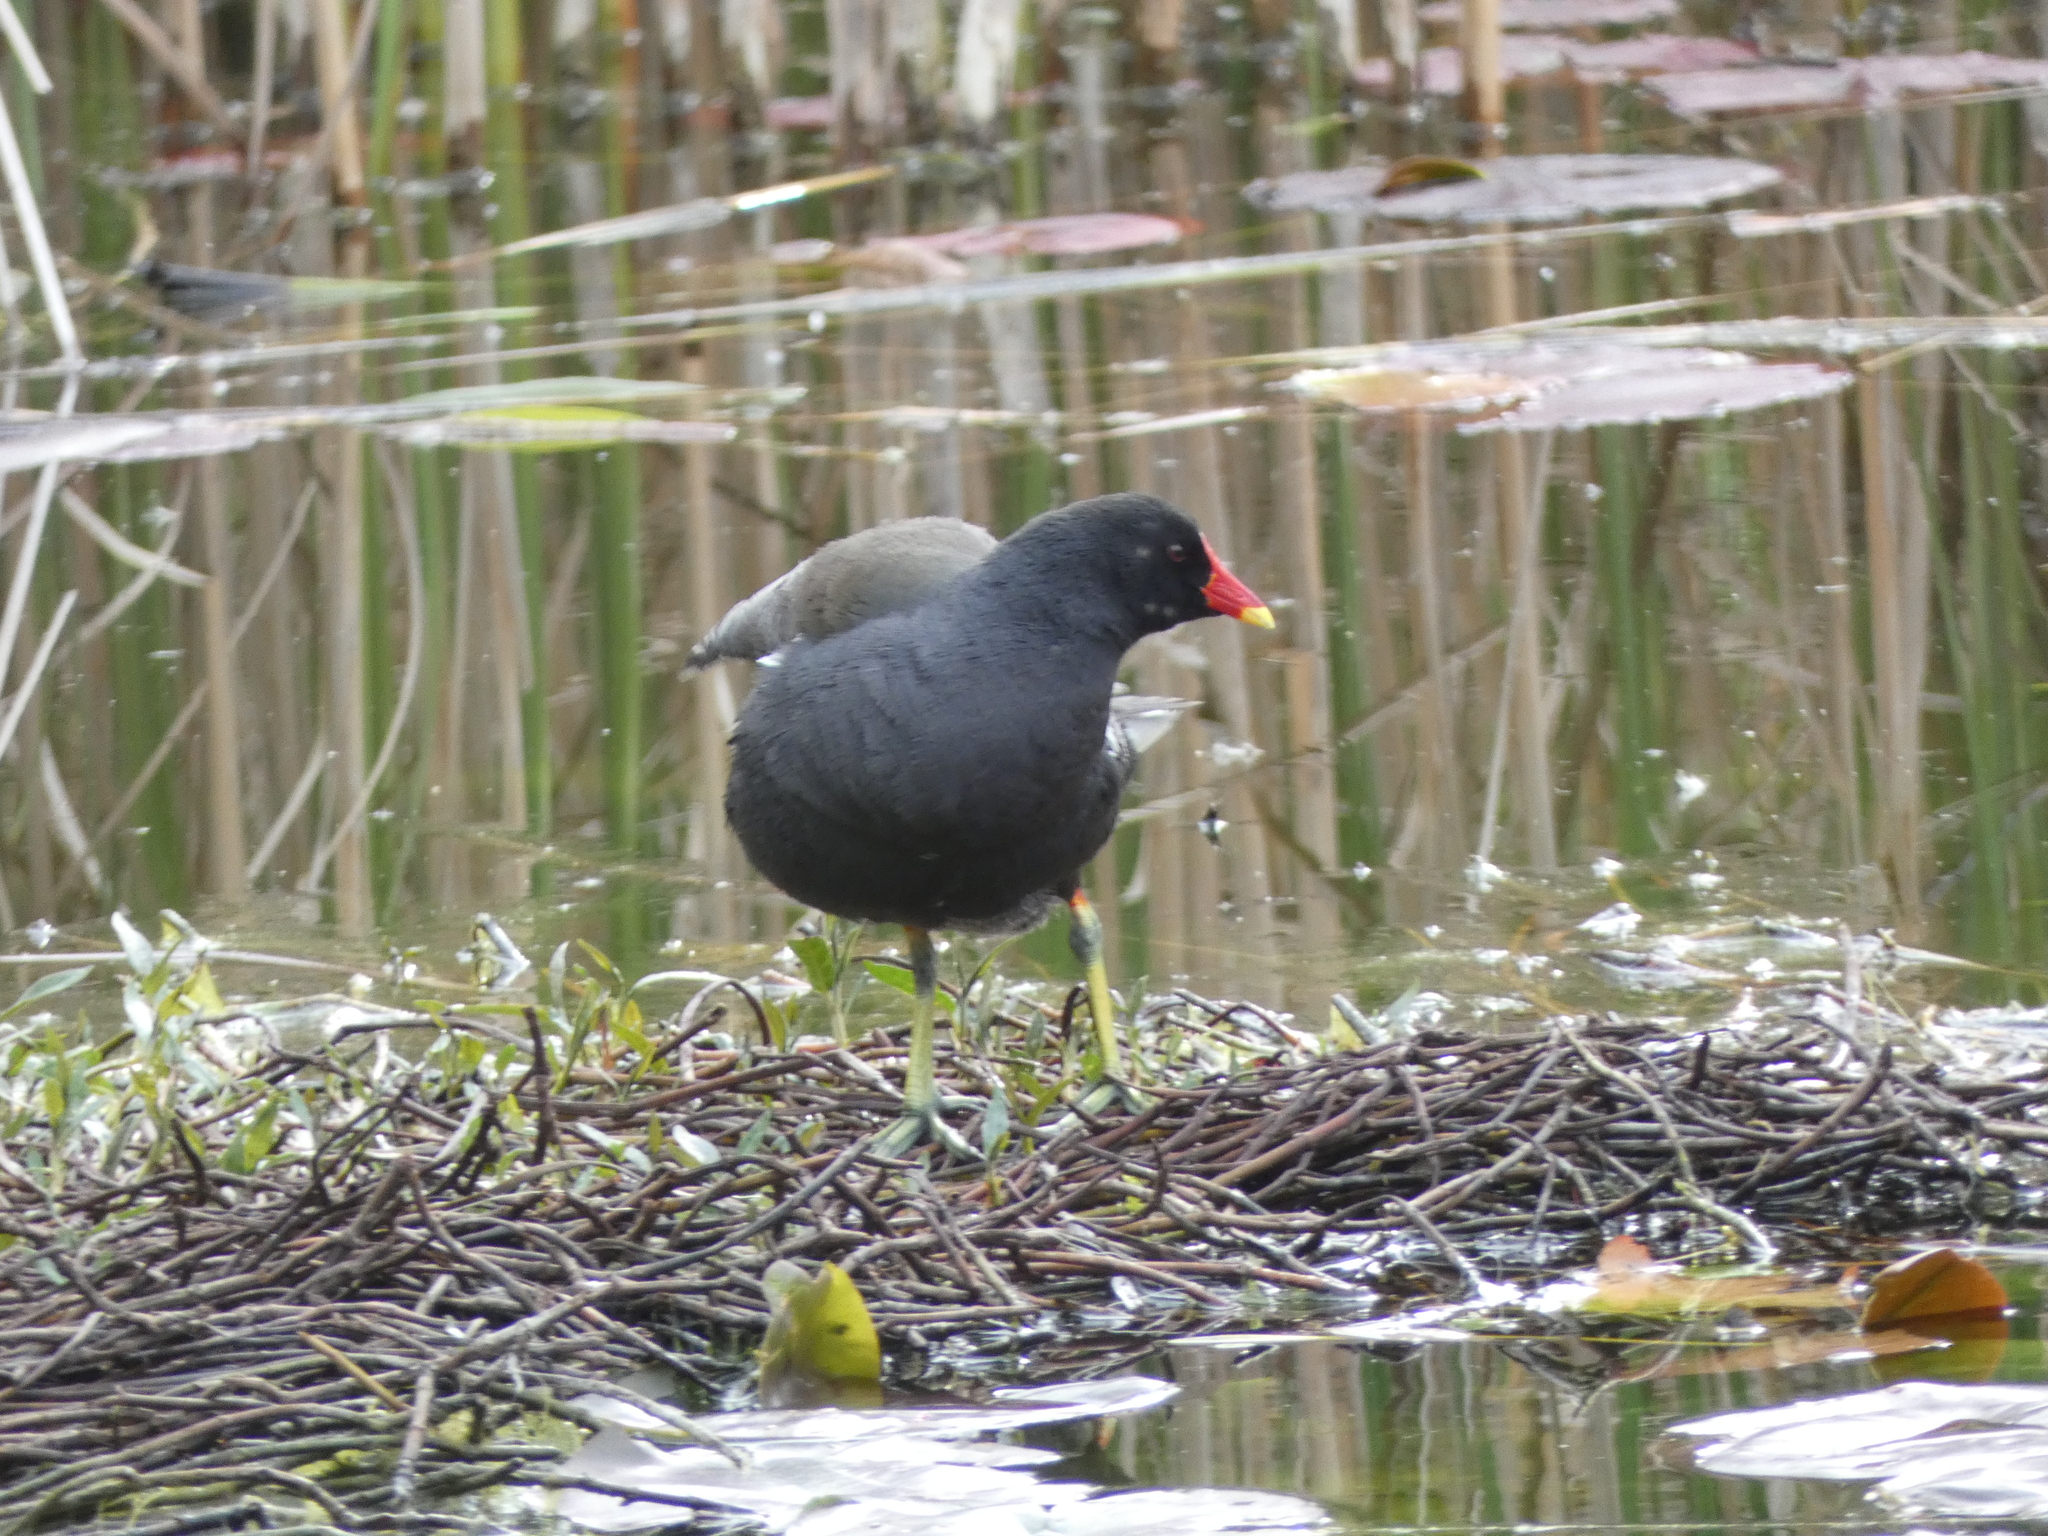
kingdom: Animalia
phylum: Chordata
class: Aves
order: Gruiformes
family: Rallidae
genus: Gallinula
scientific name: Gallinula chloropus
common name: Common moorhen
